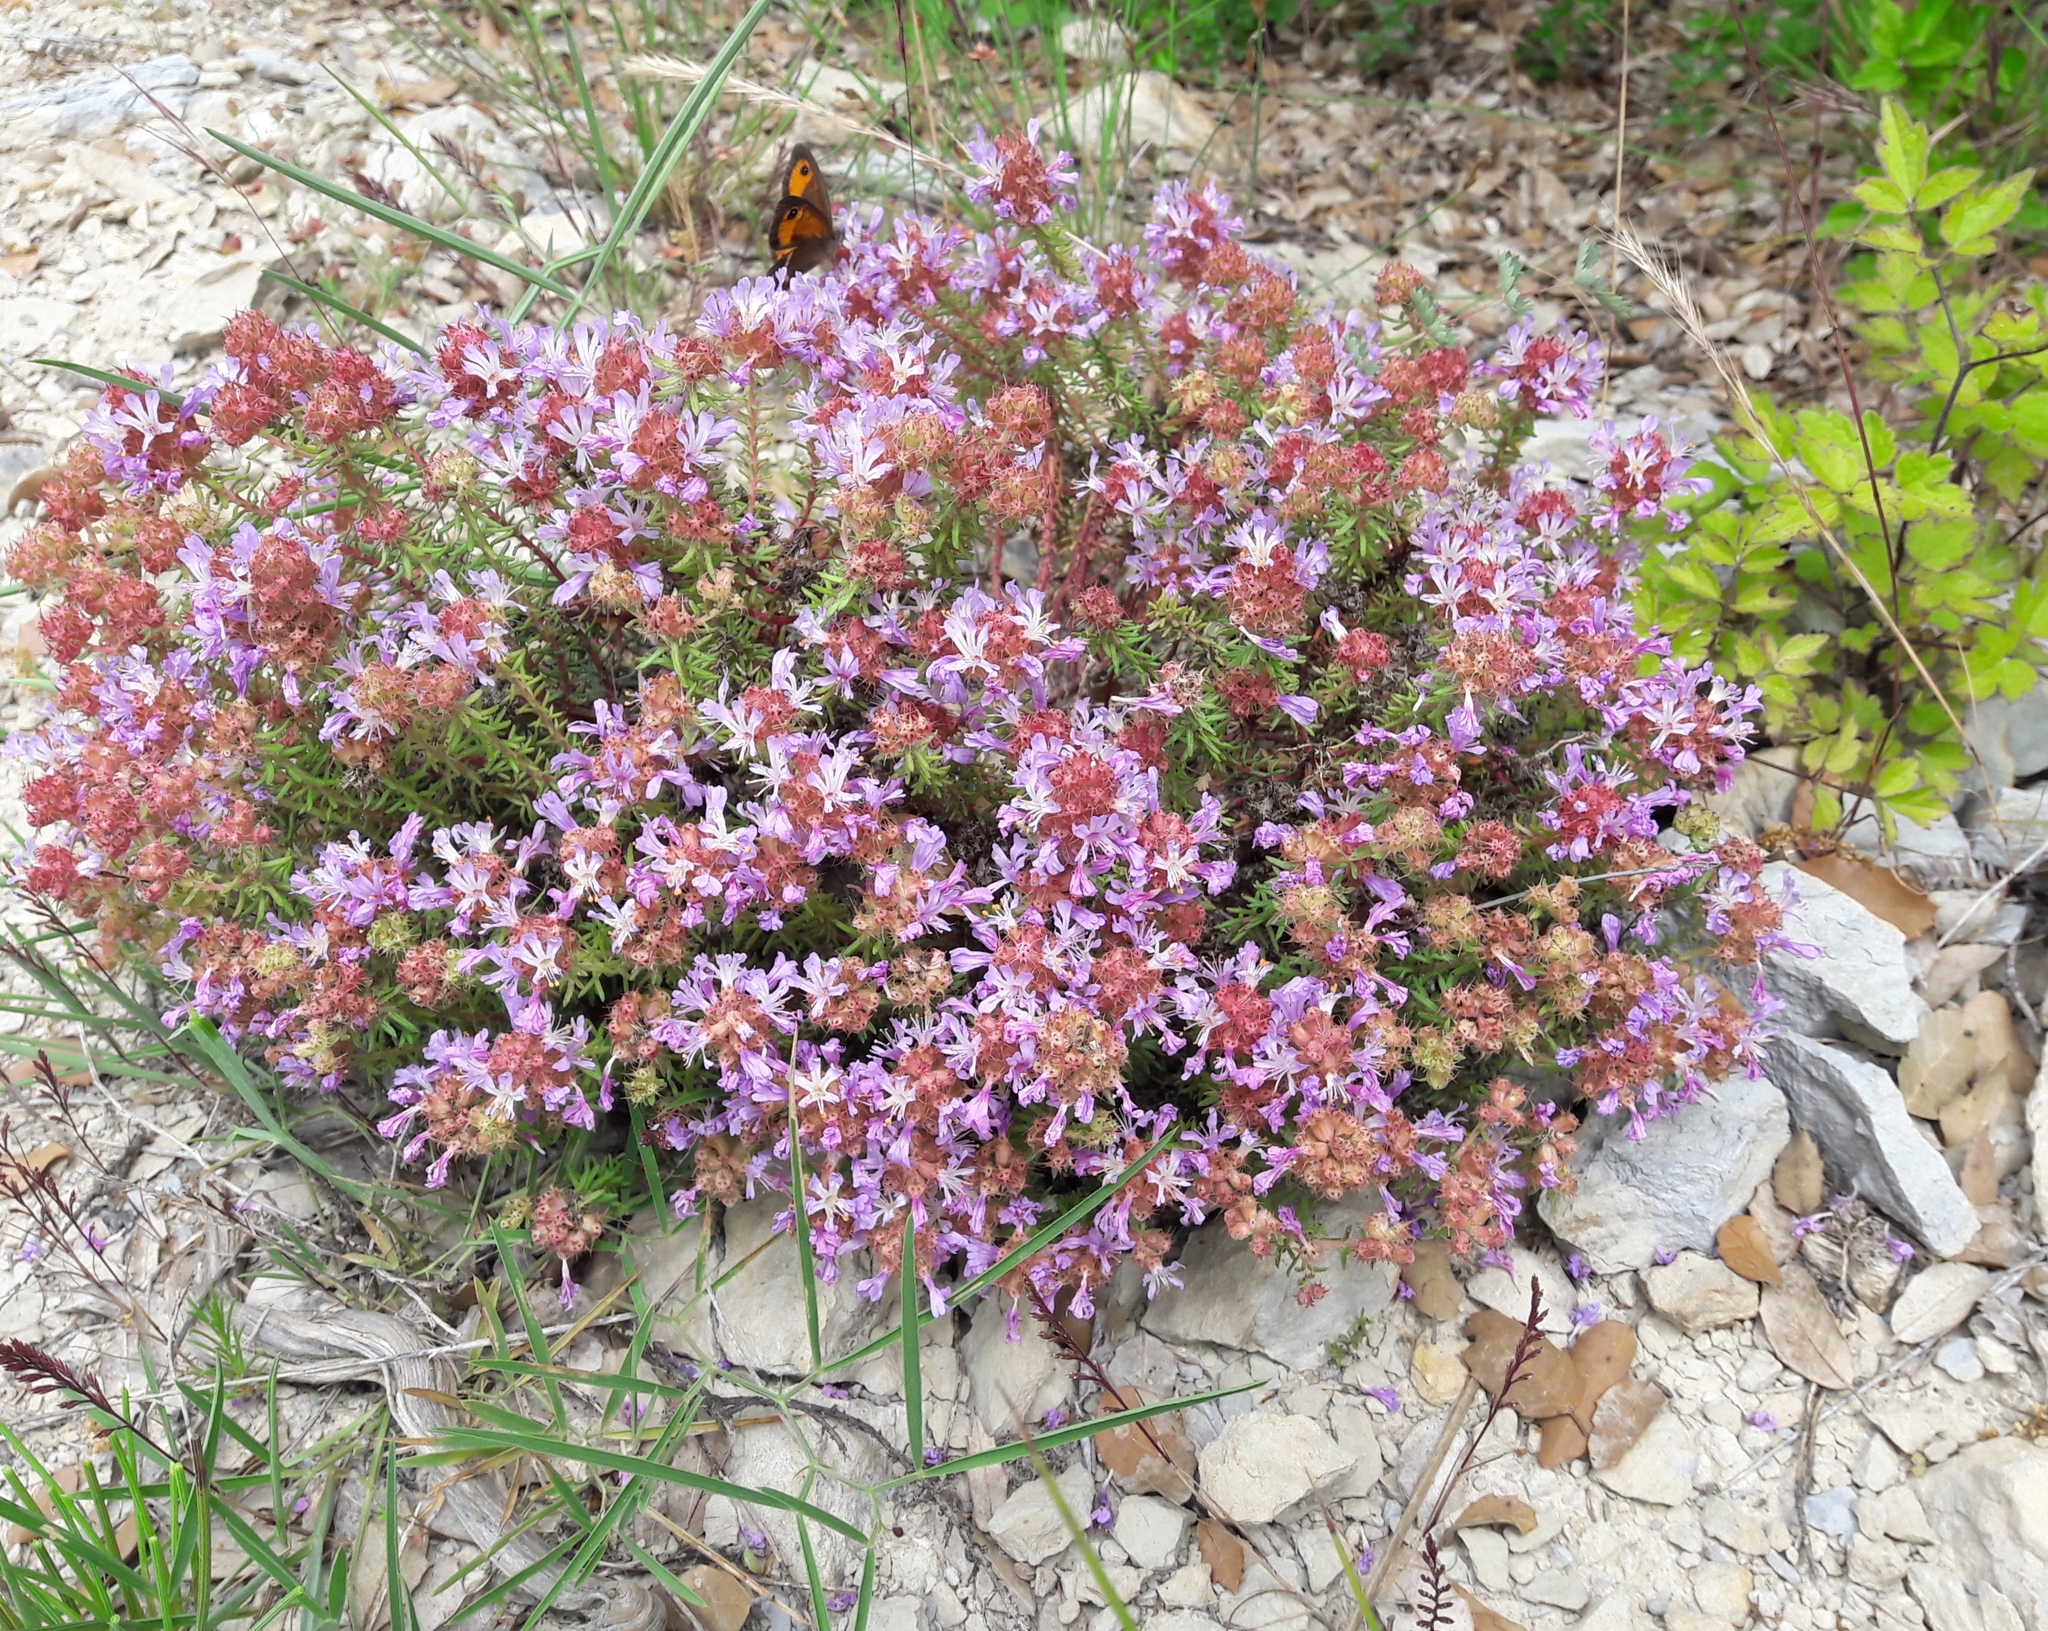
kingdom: Plantae
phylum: Tracheophyta
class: Magnoliopsida
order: Ericales
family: Primulaceae
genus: Coris
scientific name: Coris monspeliensis
